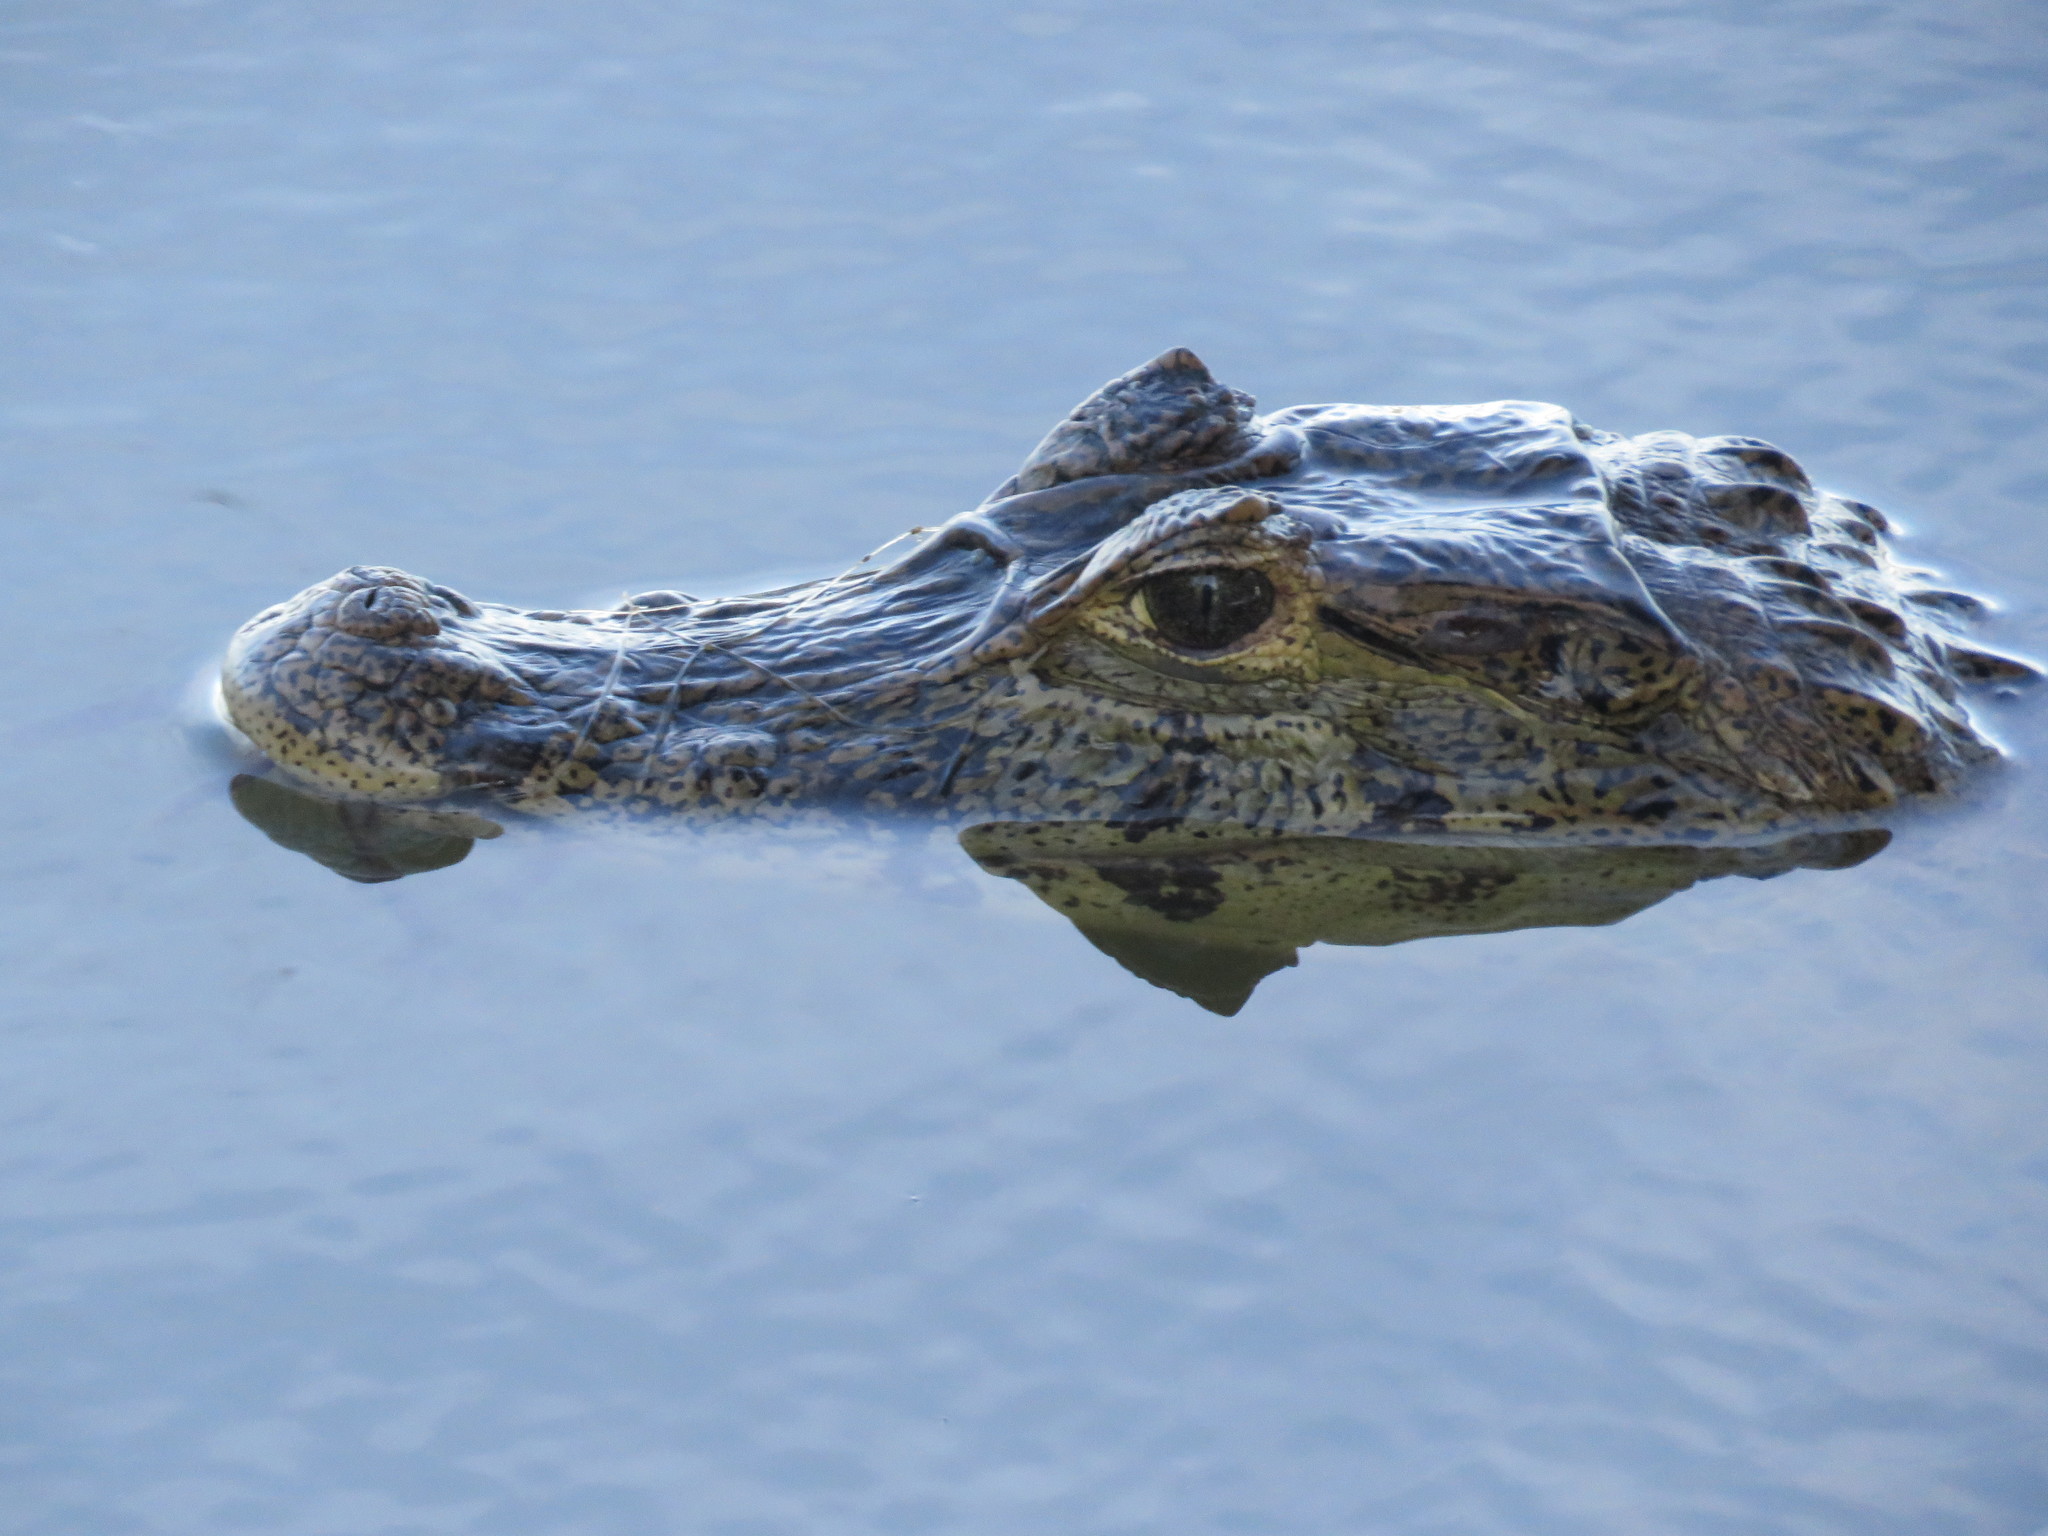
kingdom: Animalia
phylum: Chordata
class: Crocodylia
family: Alligatoridae
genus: Caiman
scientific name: Caiman yacare
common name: Yacare caiman
